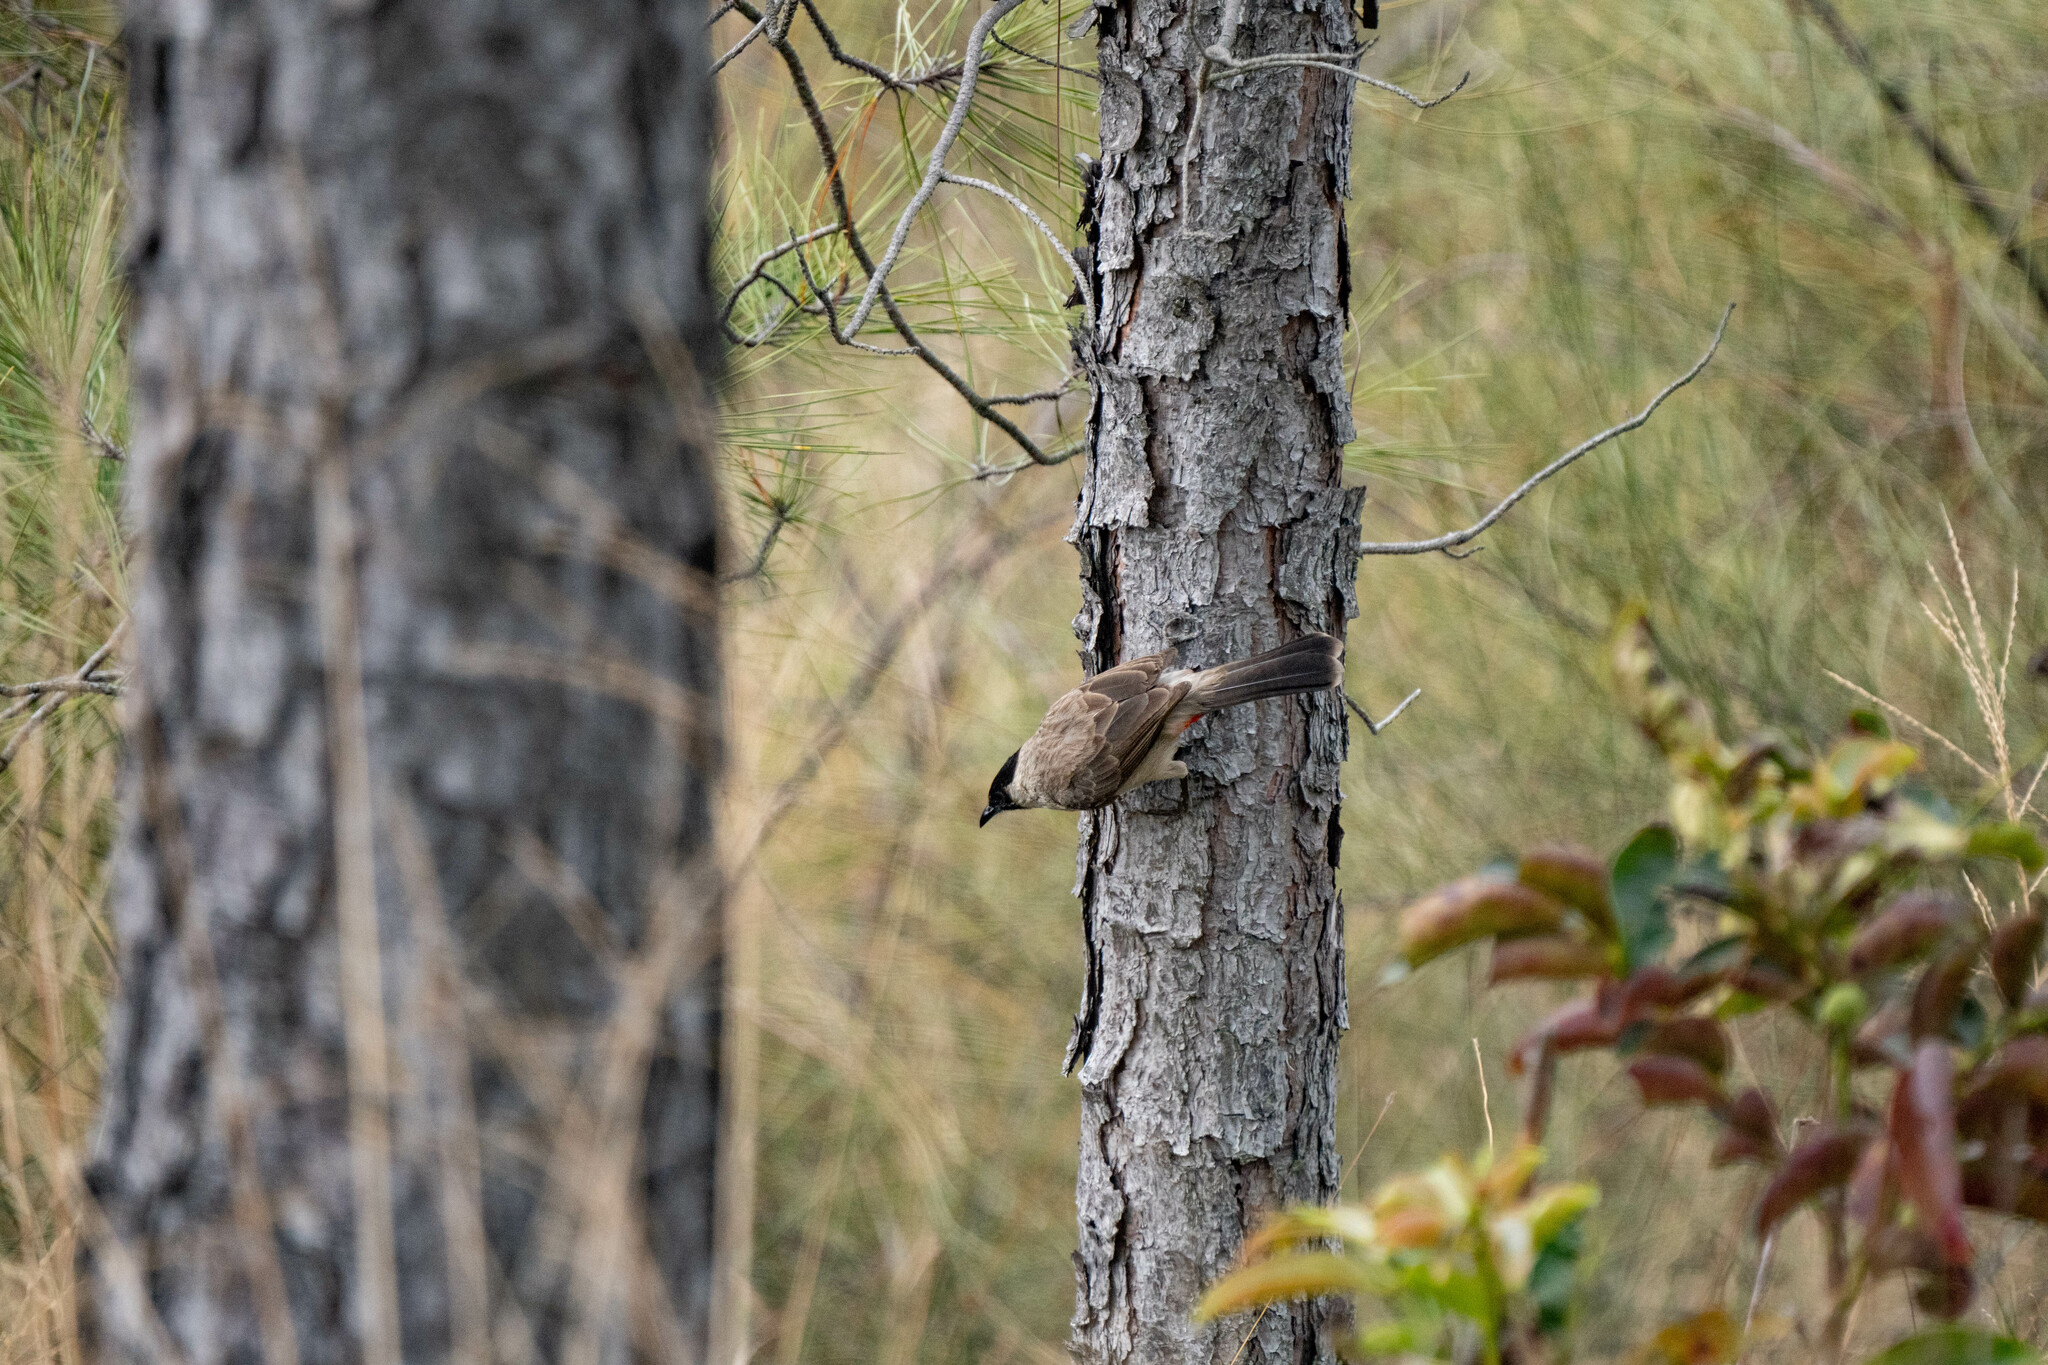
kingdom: Animalia
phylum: Chordata
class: Aves
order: Passeriformes
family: Pycnonotidae
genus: Pycnonotus
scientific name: Pycnonotus aurigaster
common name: Sooty-headed bulbul
